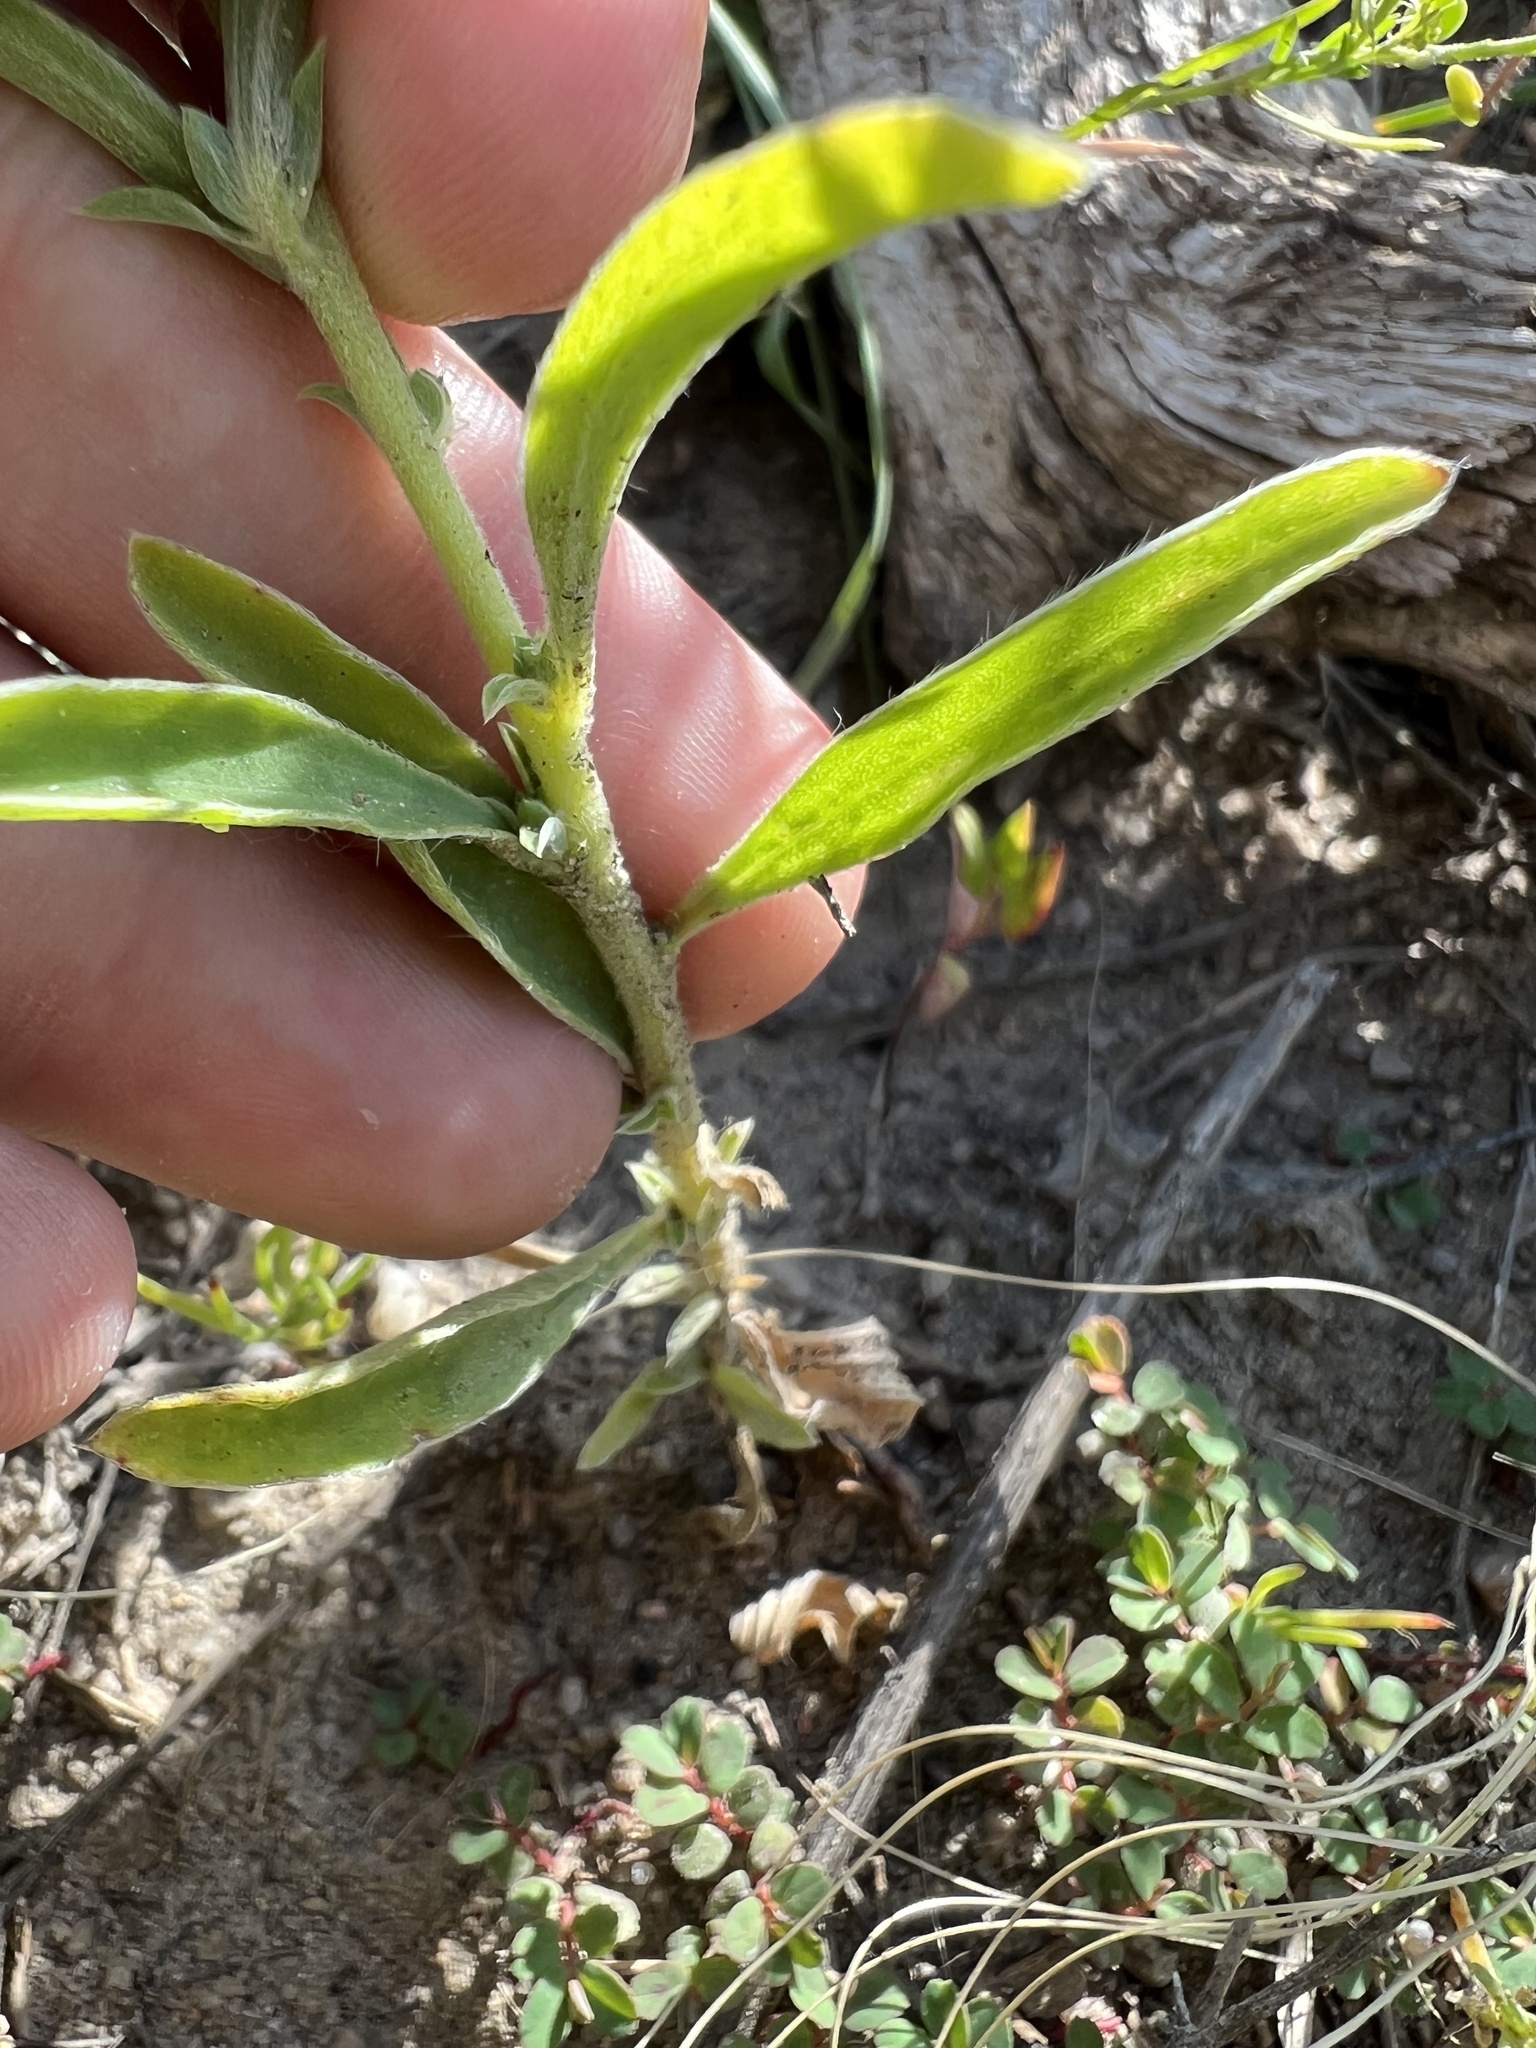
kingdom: Plantae
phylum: Tracheophyta
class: Magnoliopsida
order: Caryophyllales
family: Amaranthaceae
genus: Bassia
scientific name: Bassia scoparia
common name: Belvedere
